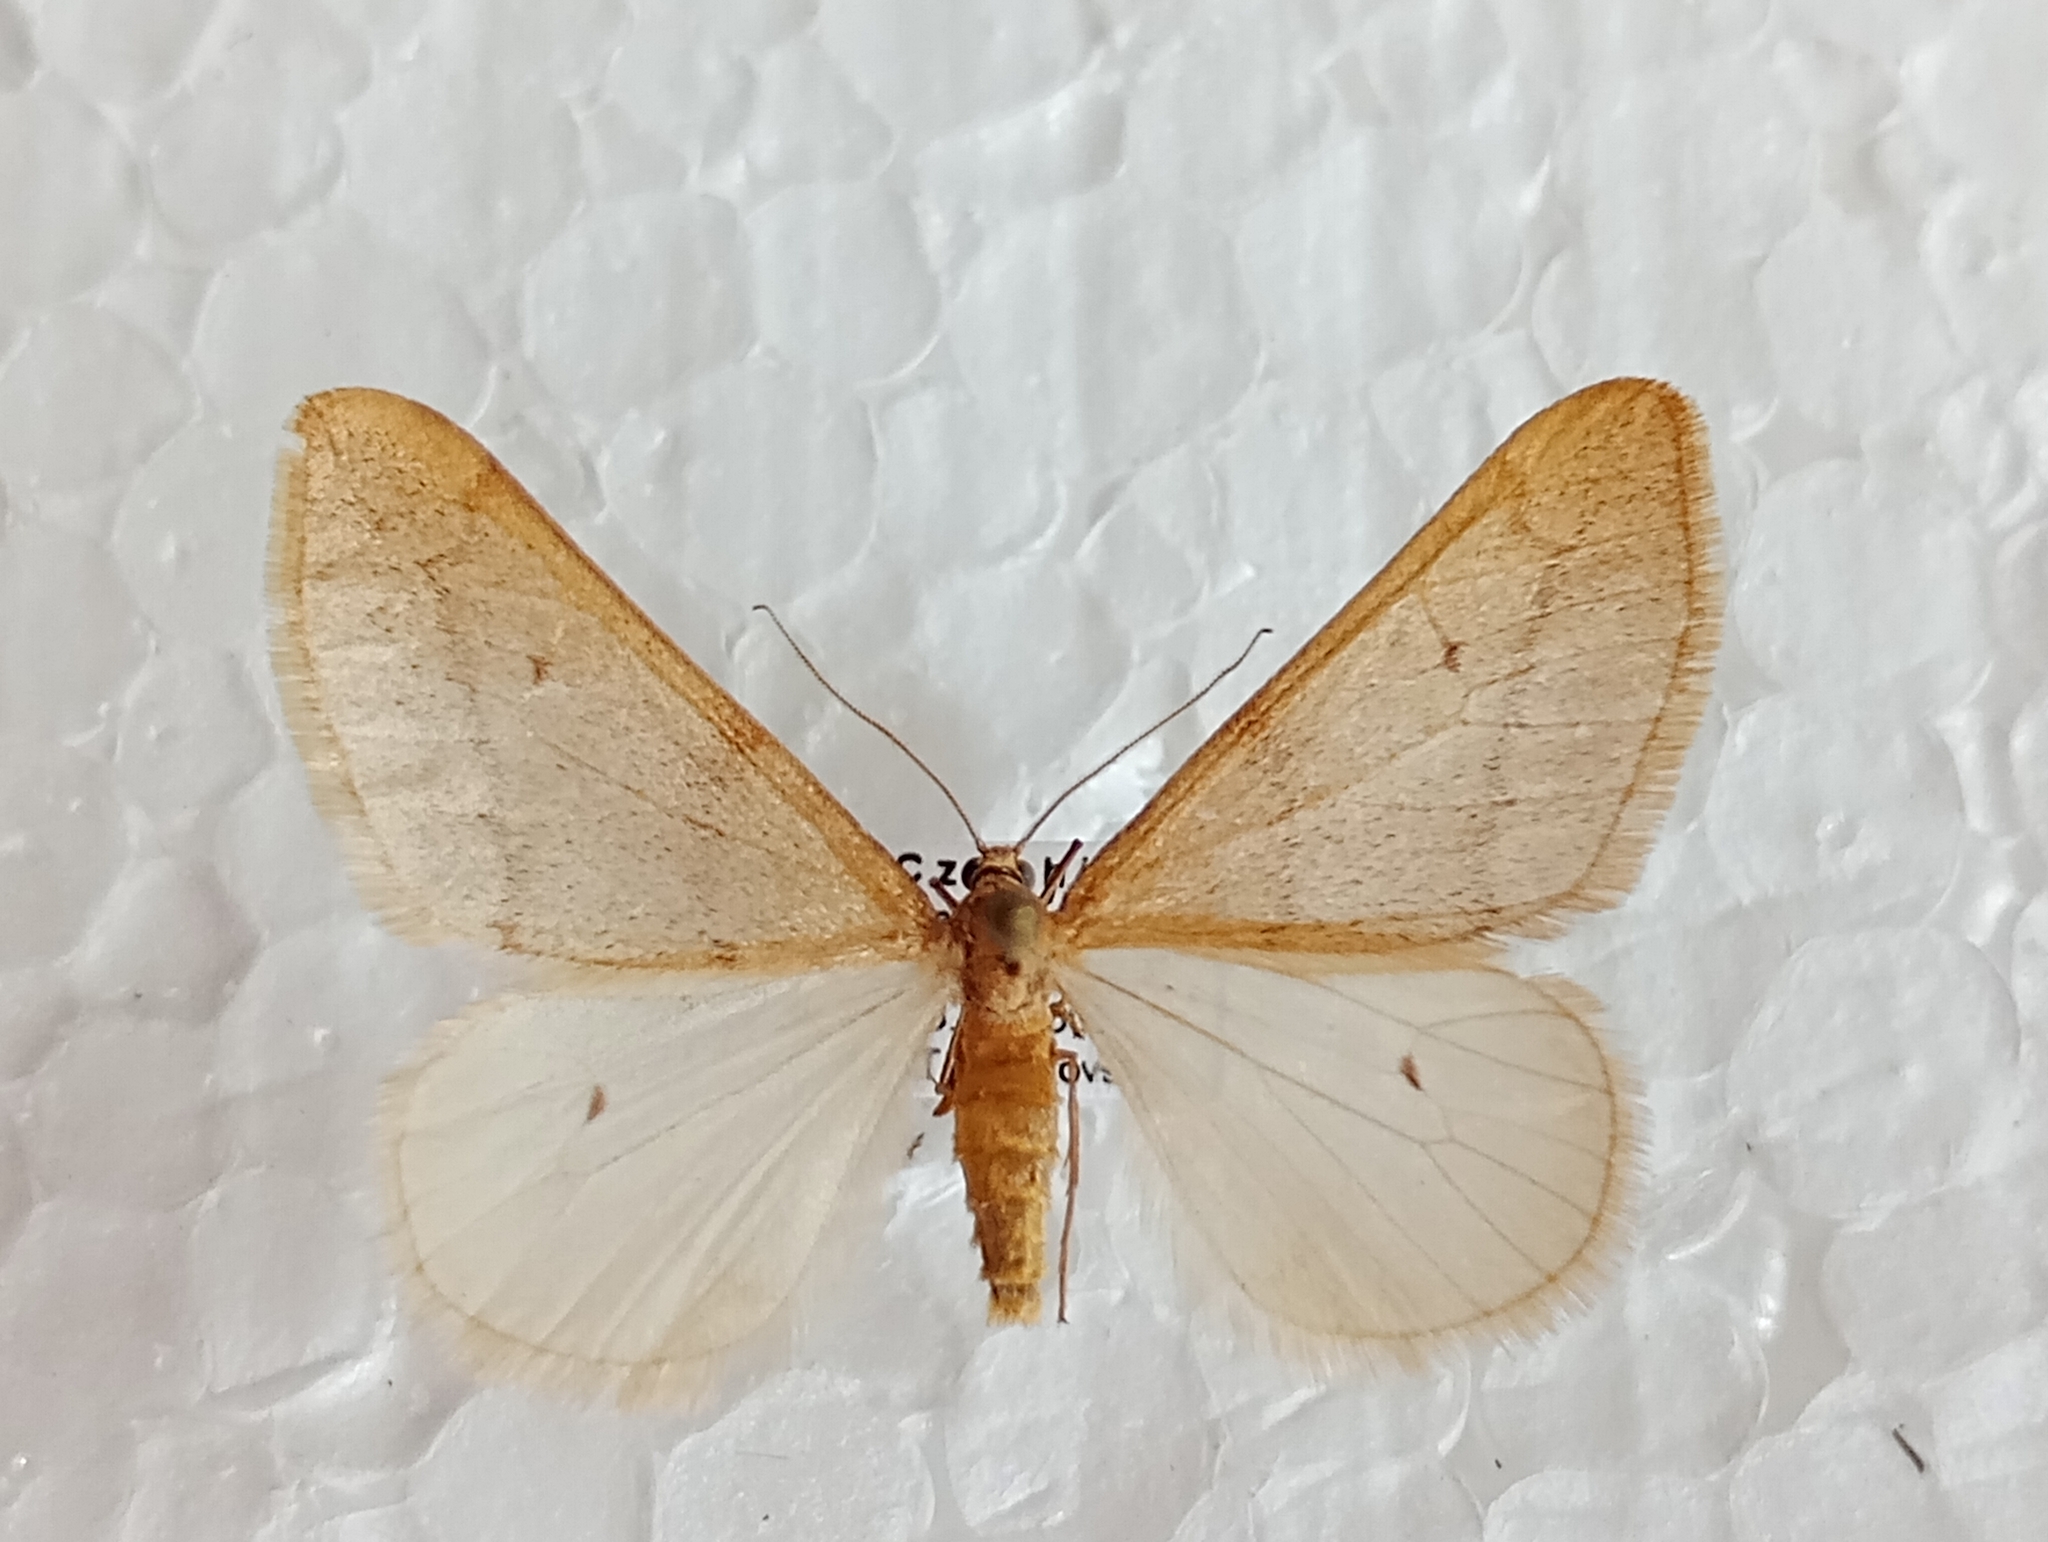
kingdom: Animalia
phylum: Arthropoda
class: Insecta
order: Lepidoptera
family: Geometridae
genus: Alsophila
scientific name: Alsophila aceraria
